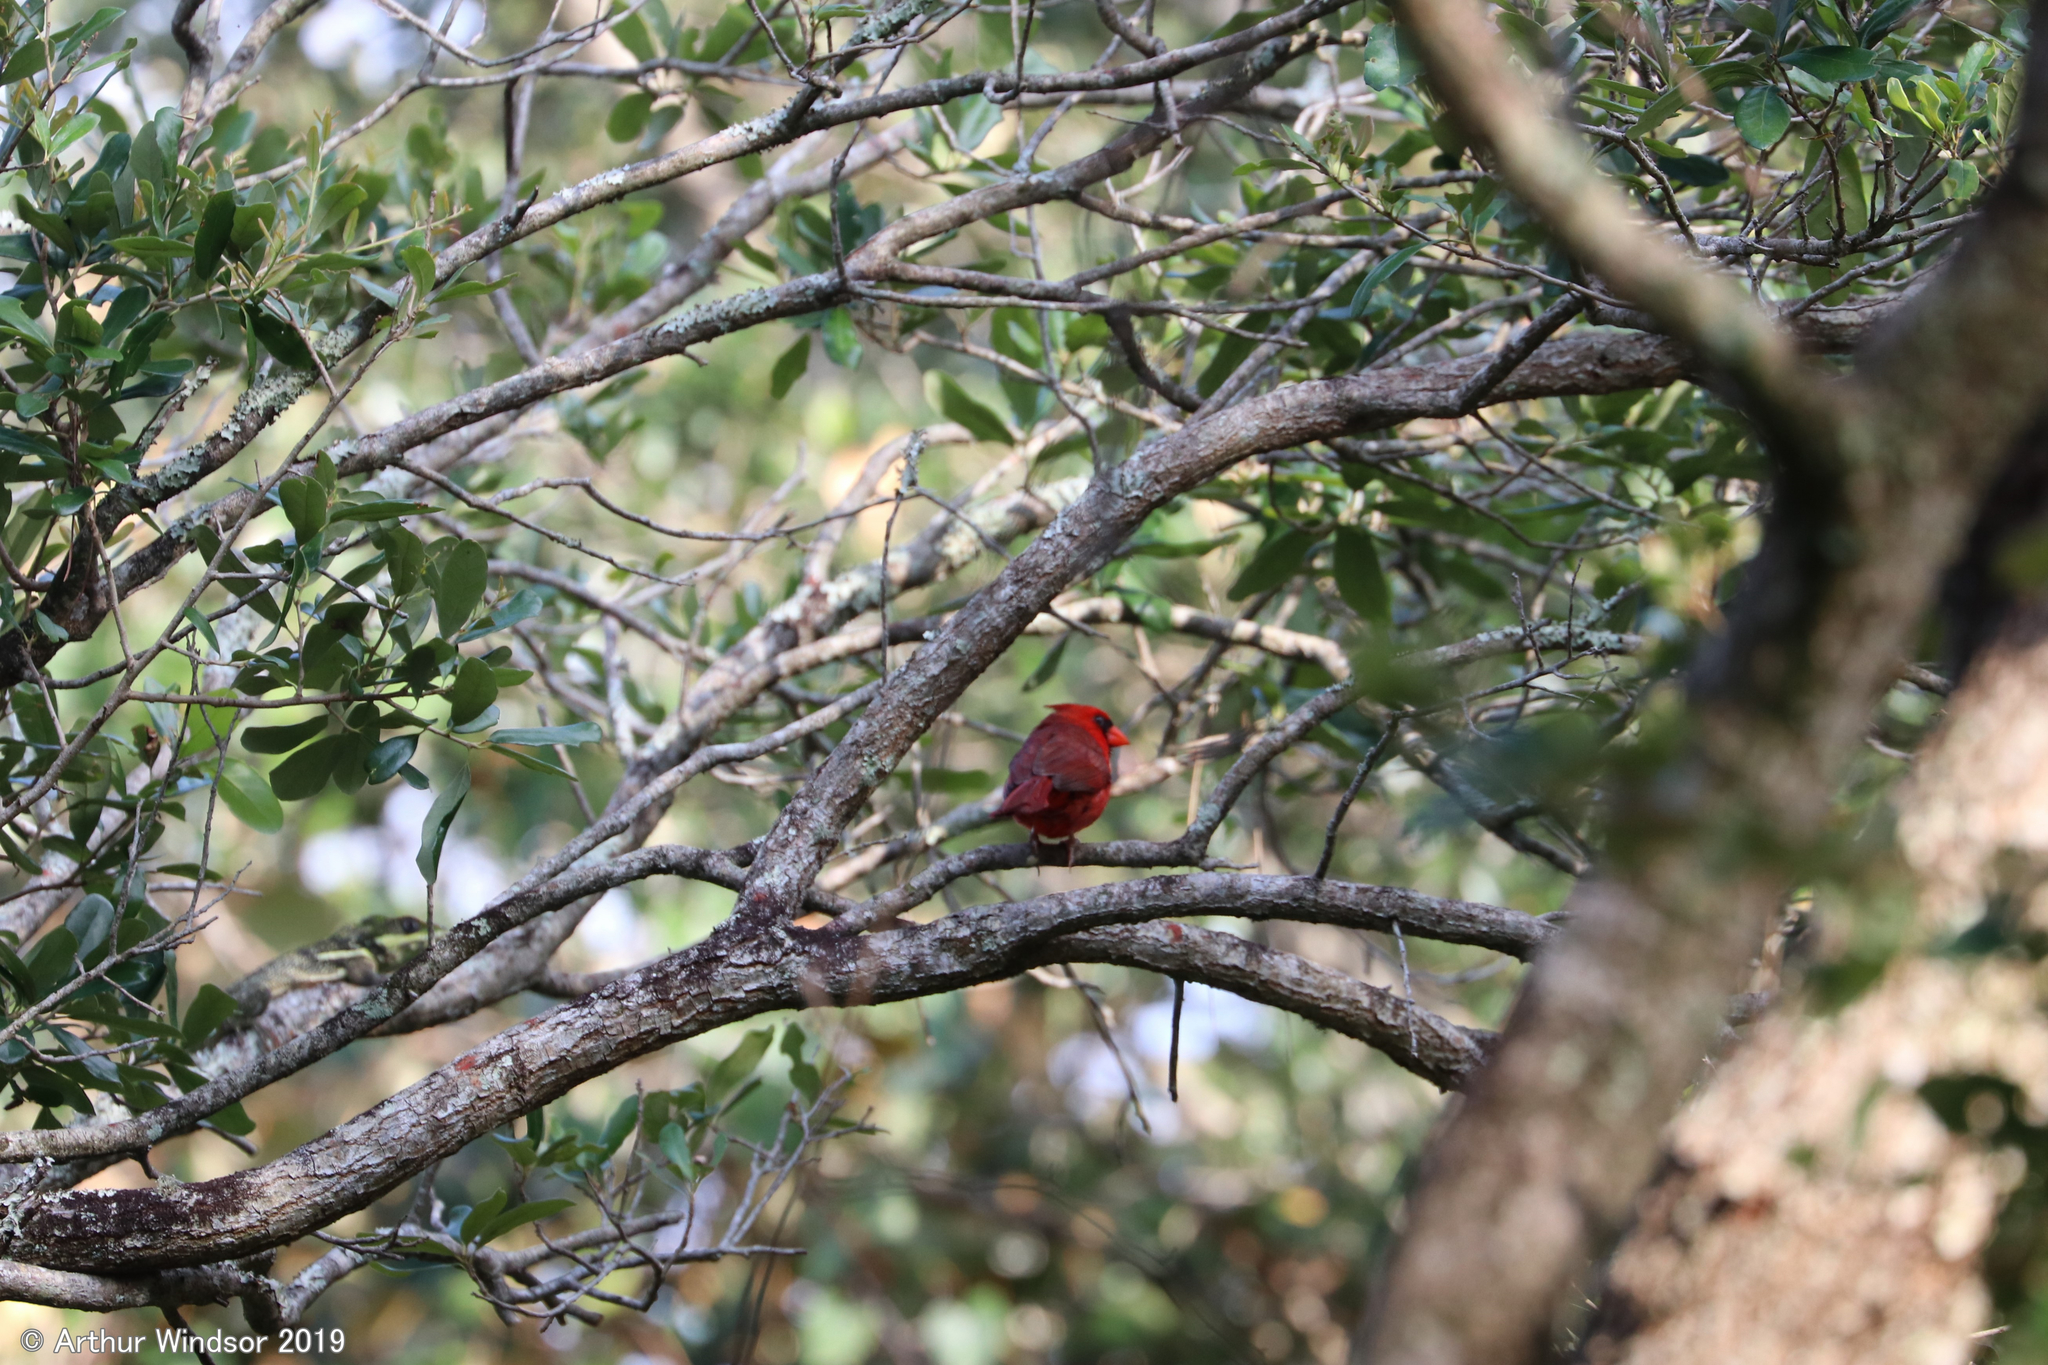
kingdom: Animalia
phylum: Chordata
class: Aves
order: Passeriformes
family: Cardinalidae
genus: Cardinalis
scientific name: Cardinalis cardinalis
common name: Northern cardinal
